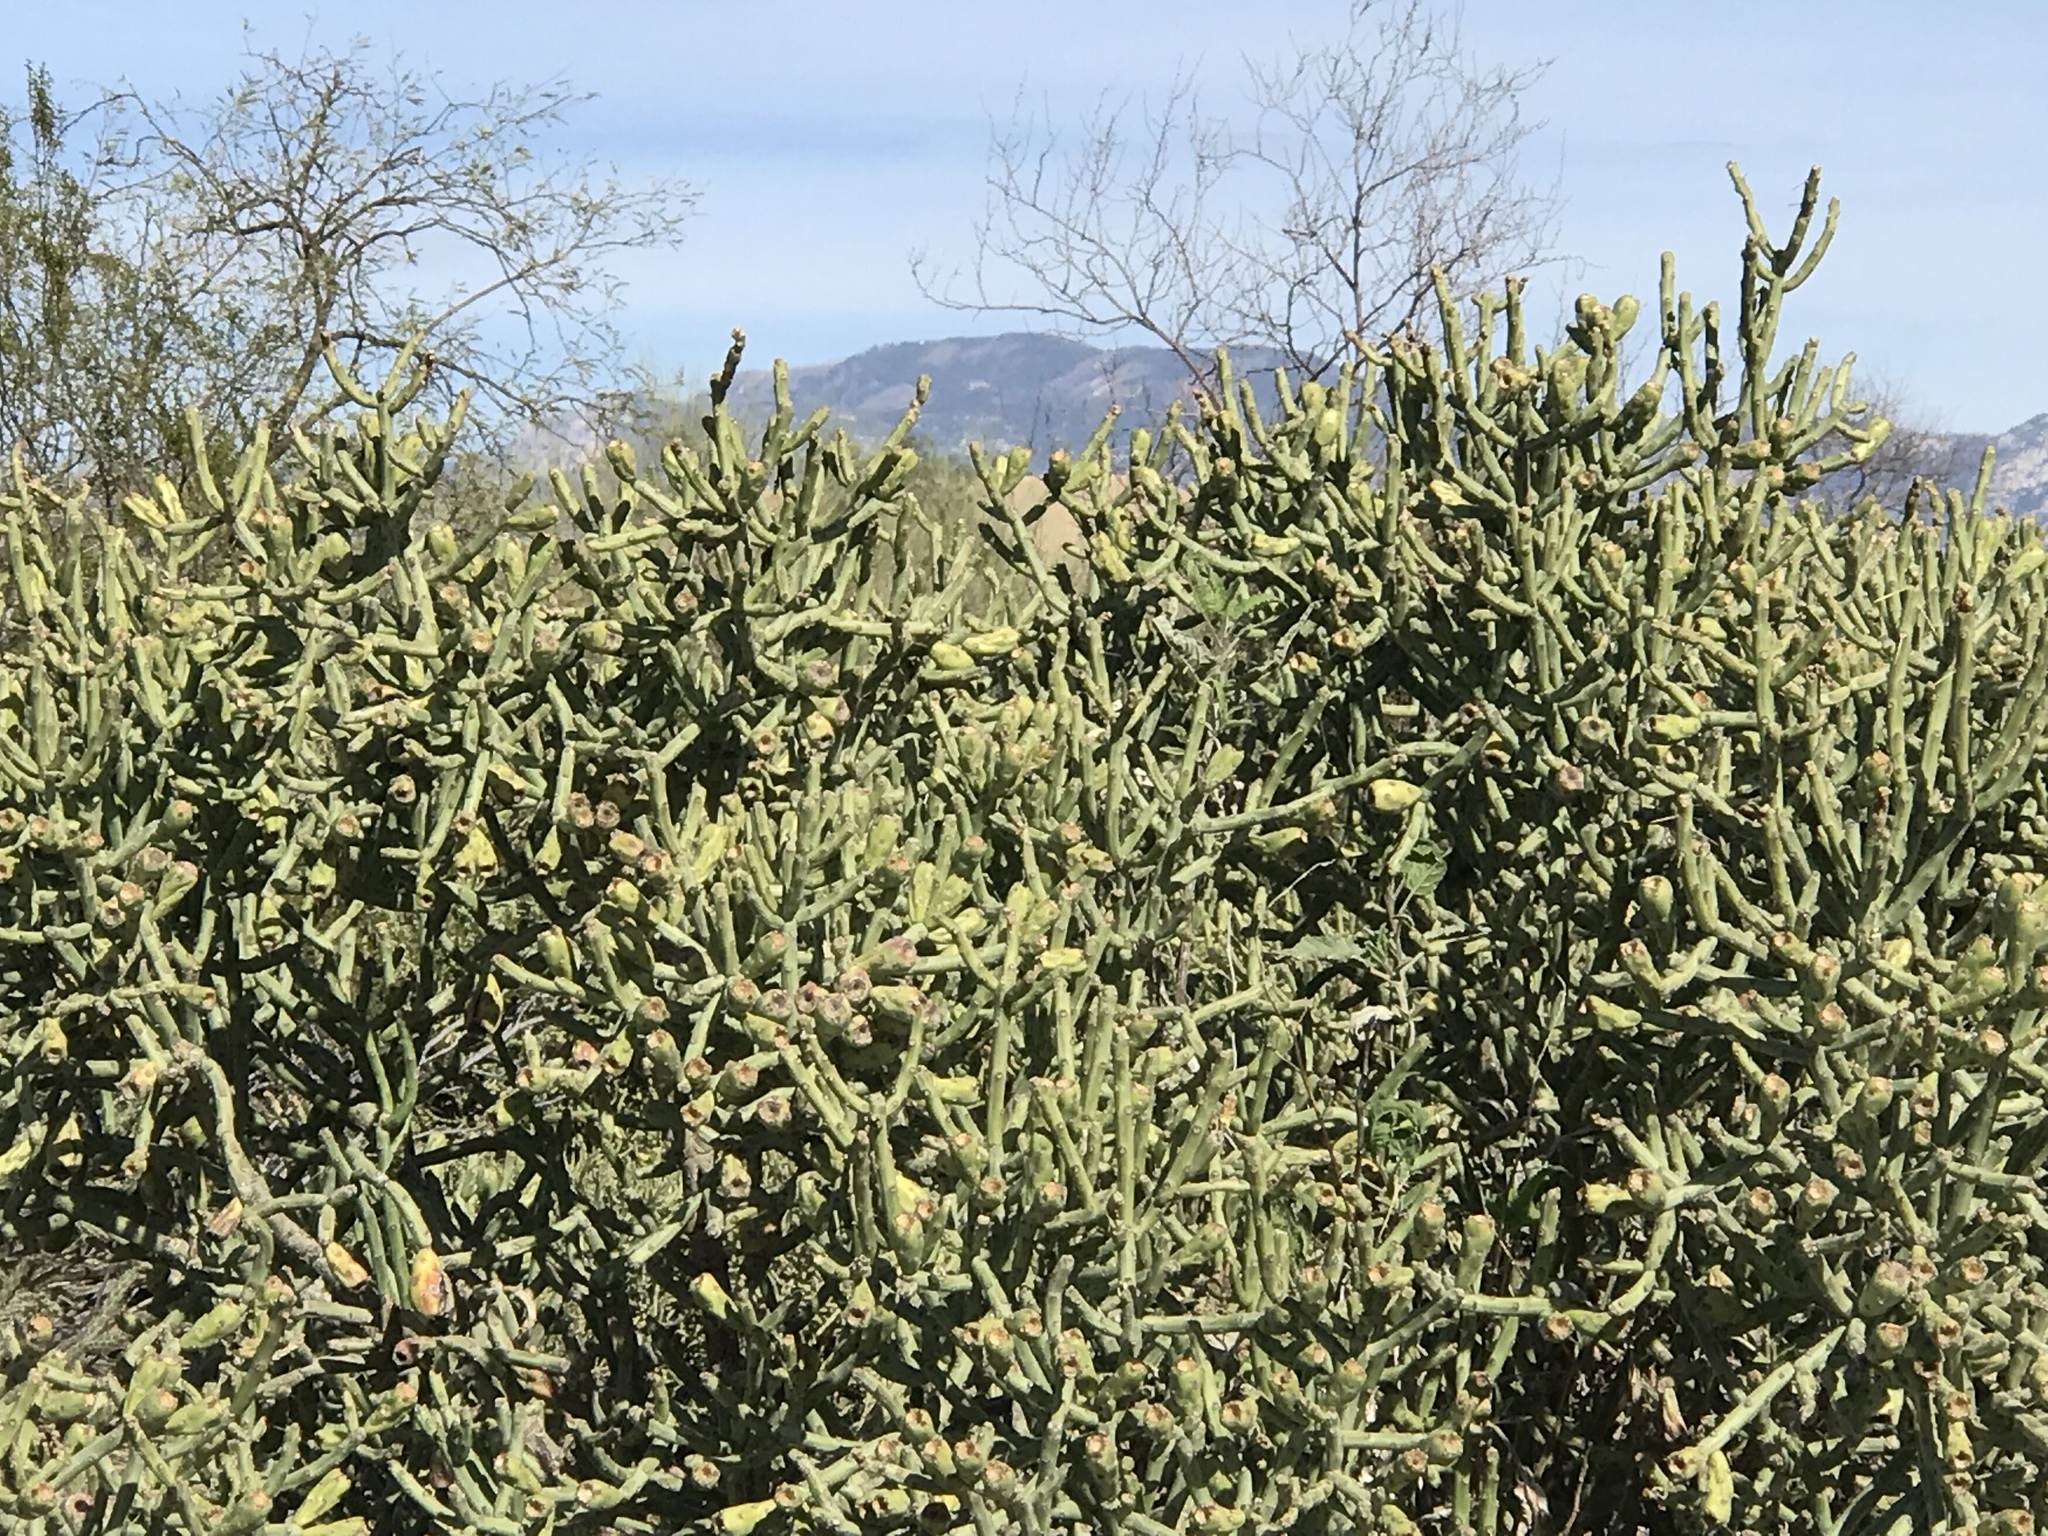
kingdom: Plantae
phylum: Tracheophyta
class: Magnoliopsida
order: Caryophyllales
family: Cactaceae
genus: Cylindropuntia
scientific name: Cylindropuntia arbuscula
